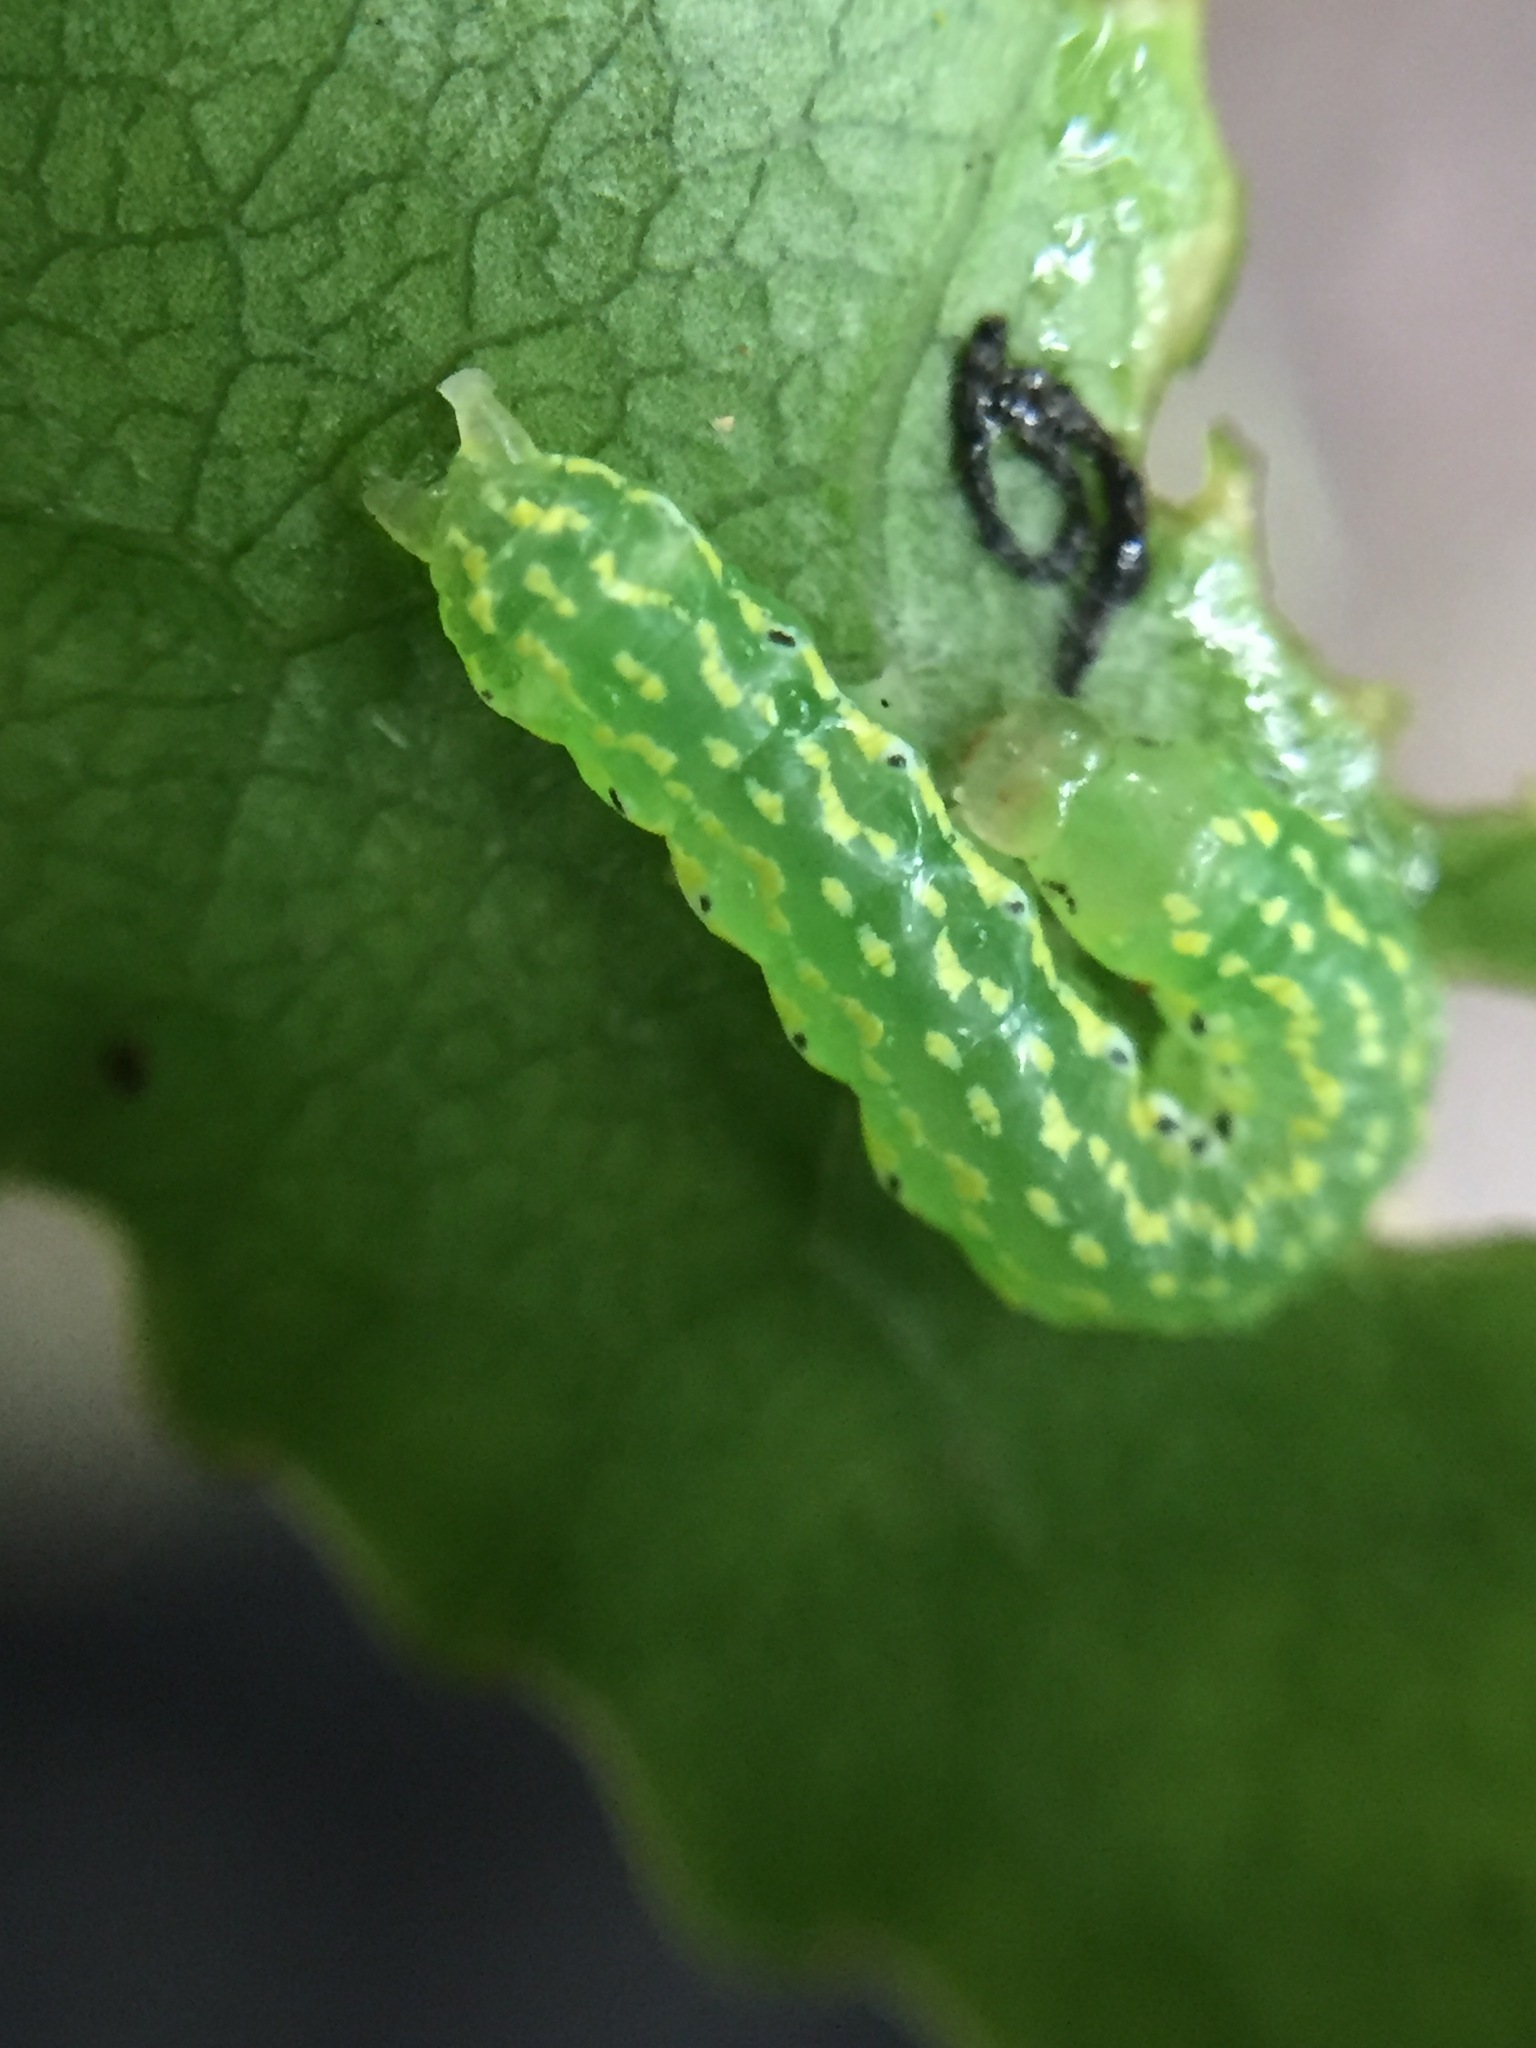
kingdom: Animalia
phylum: Arthropoda
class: Insecta
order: Lepidoptera
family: Noctuidae
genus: Austramathes
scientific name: Austramathes purpurea
